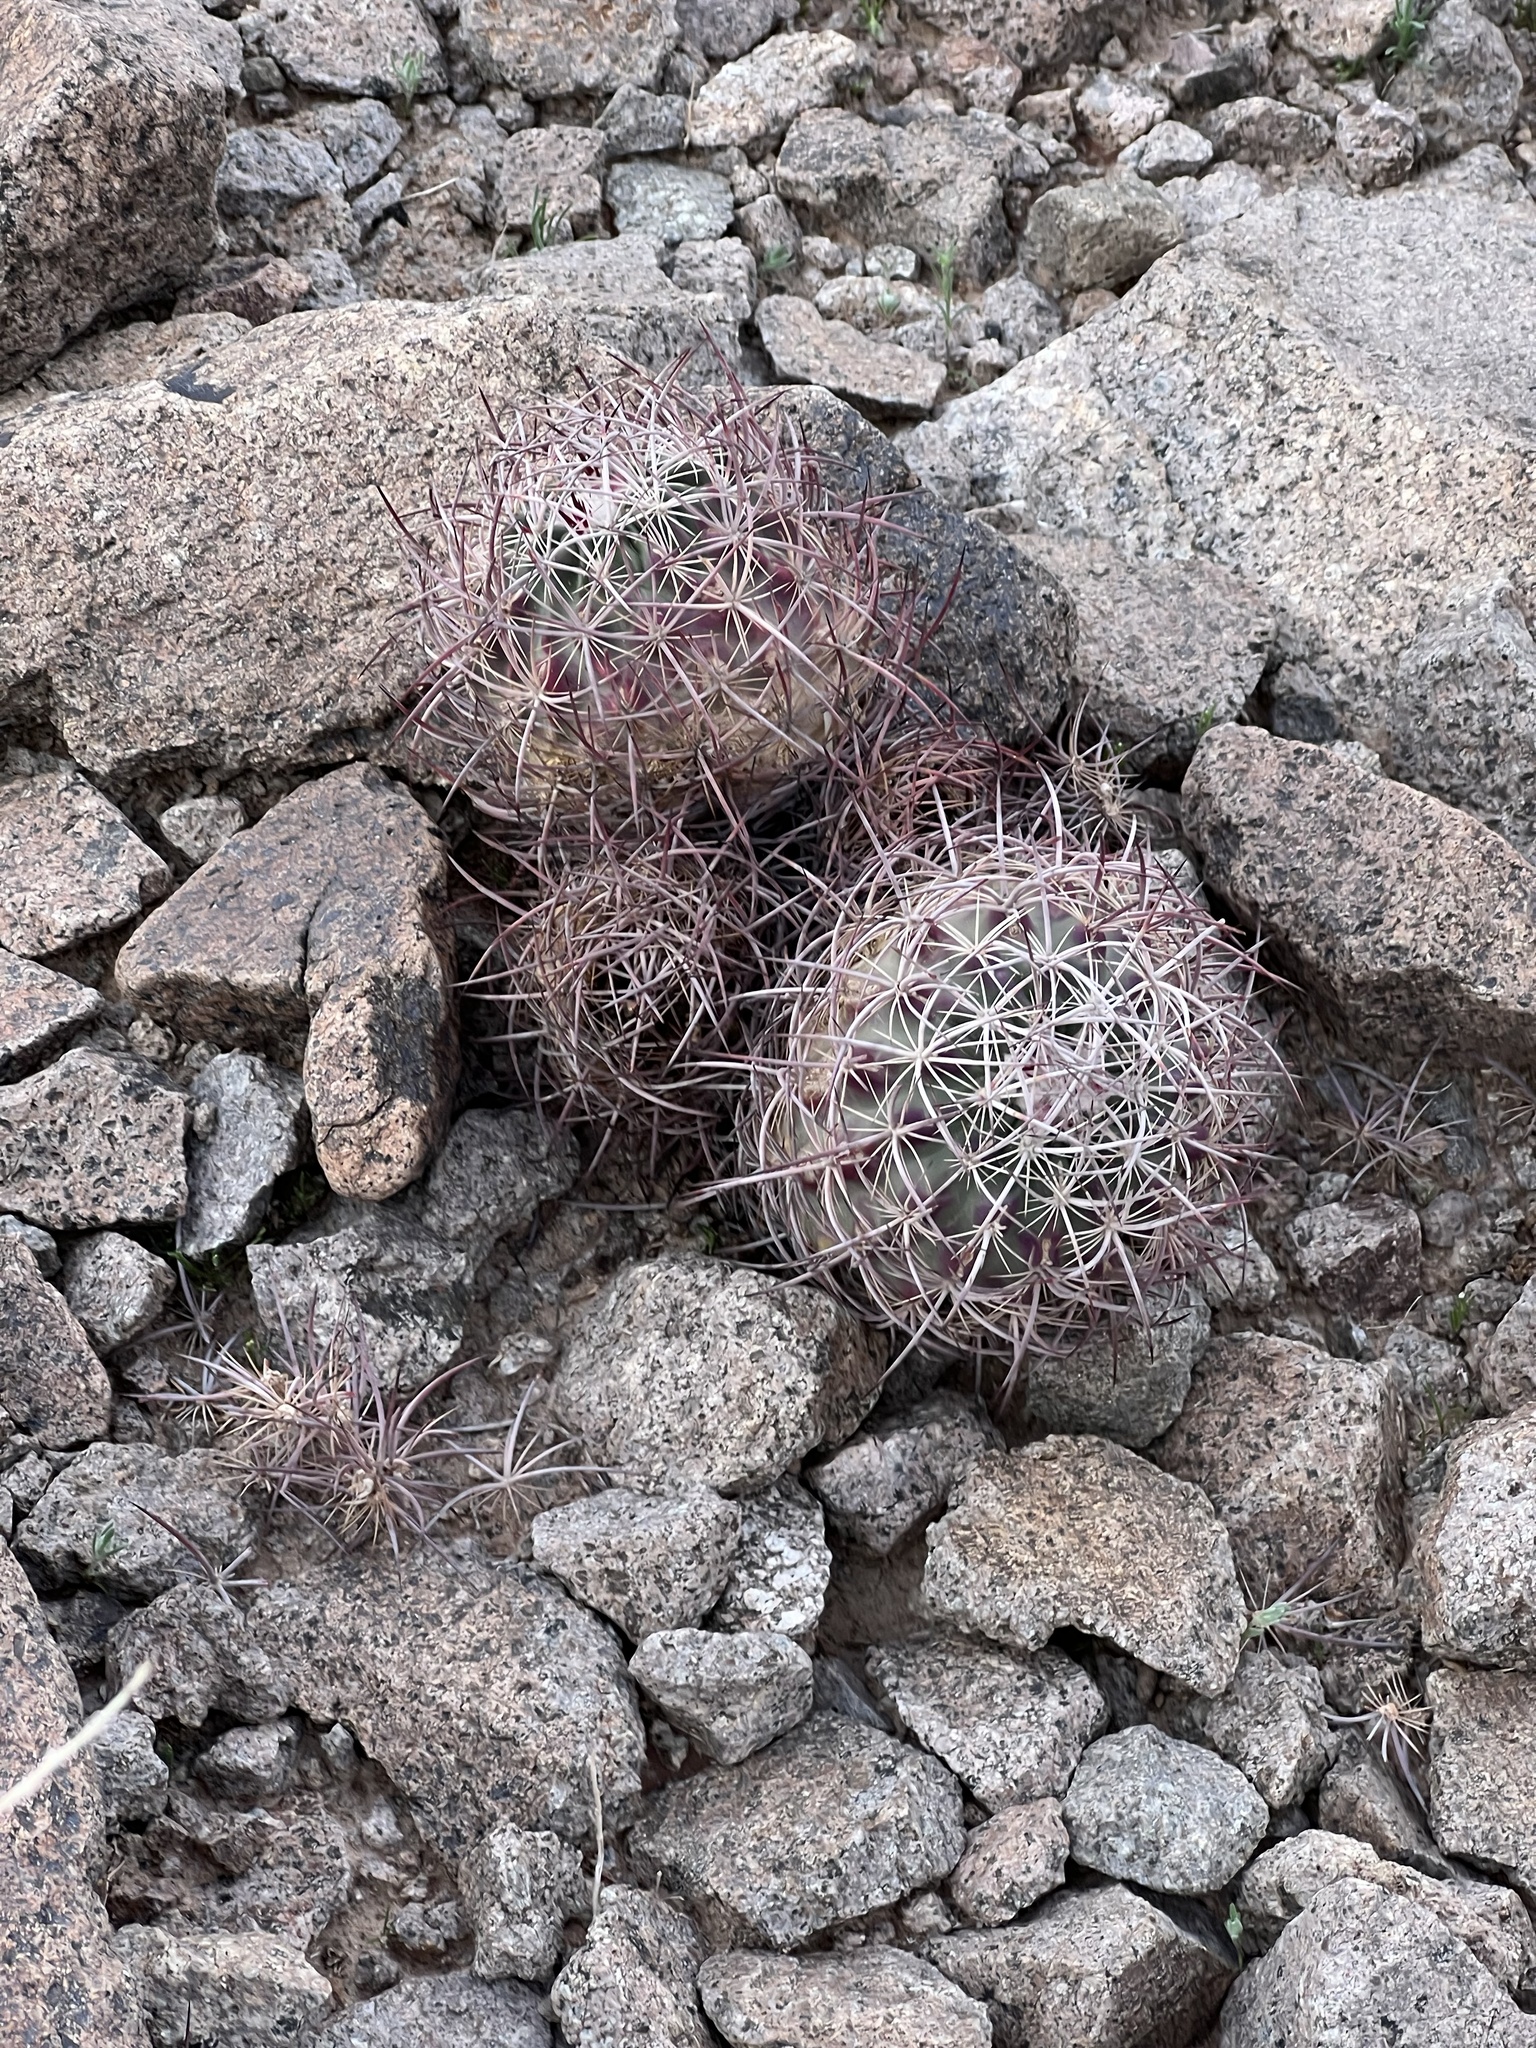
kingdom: Plantae
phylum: Tracheophyta
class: Magnoliopsida
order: Caryophyllales
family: Cactaceae
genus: Sclerocactus
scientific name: Sclerocactus johnsonii
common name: Eight-spine fishhook cactus
